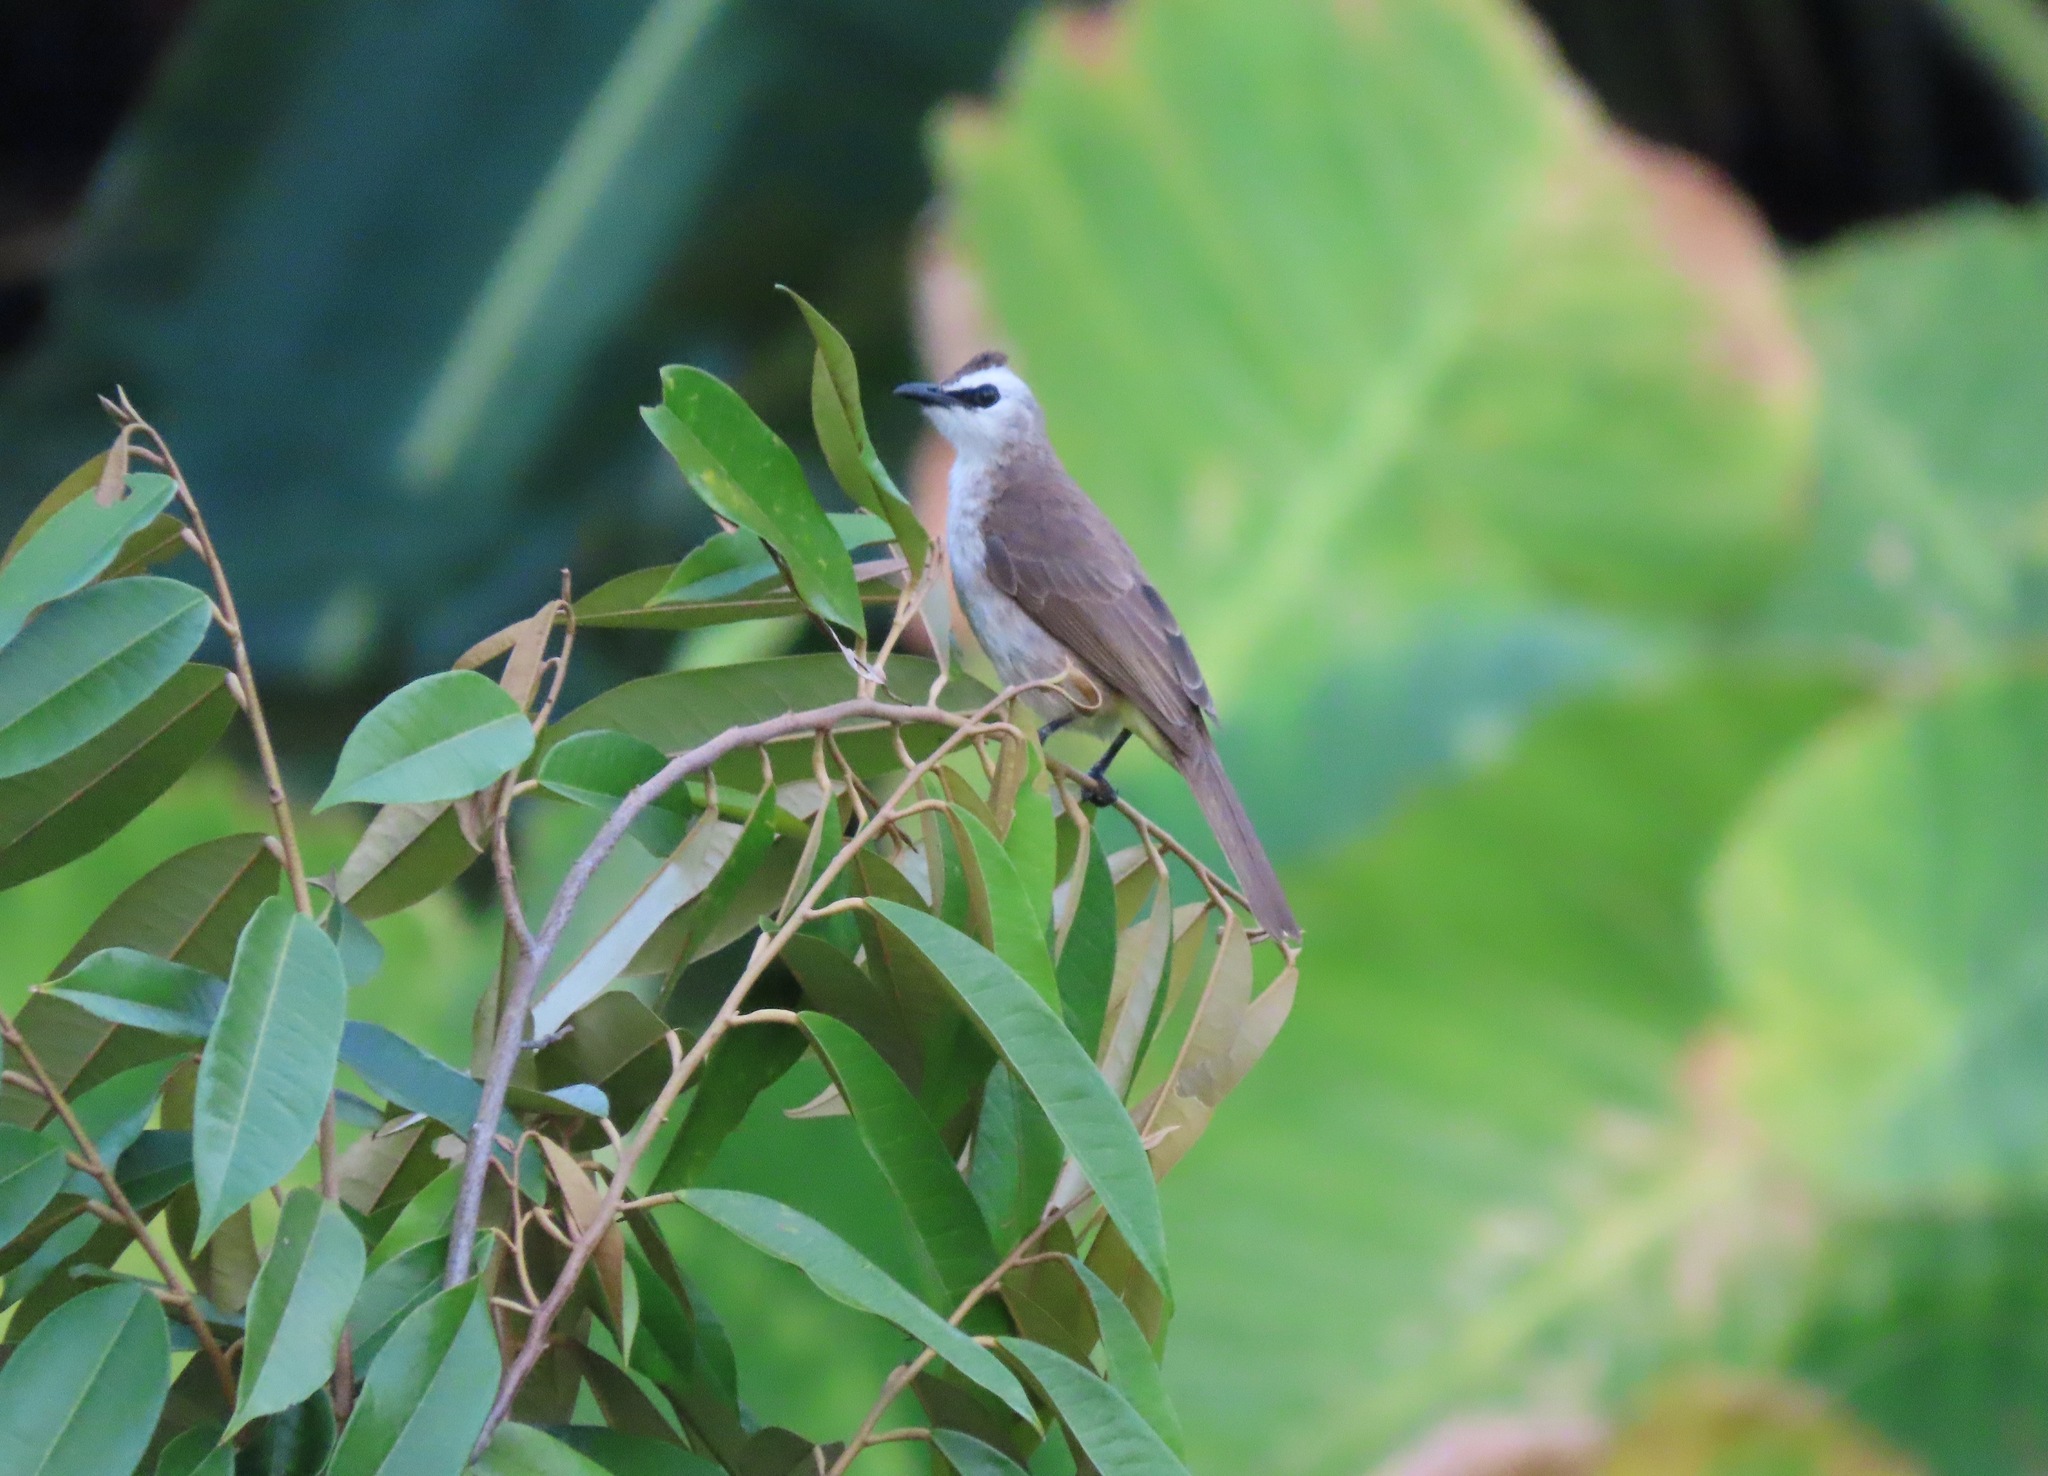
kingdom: Animalia
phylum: Chordata
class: Aves
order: Passeriformes
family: Pycnonotidae
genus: Pycnonotus
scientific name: Pycnonotus goiavier
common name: Yellow-vented bulbul
